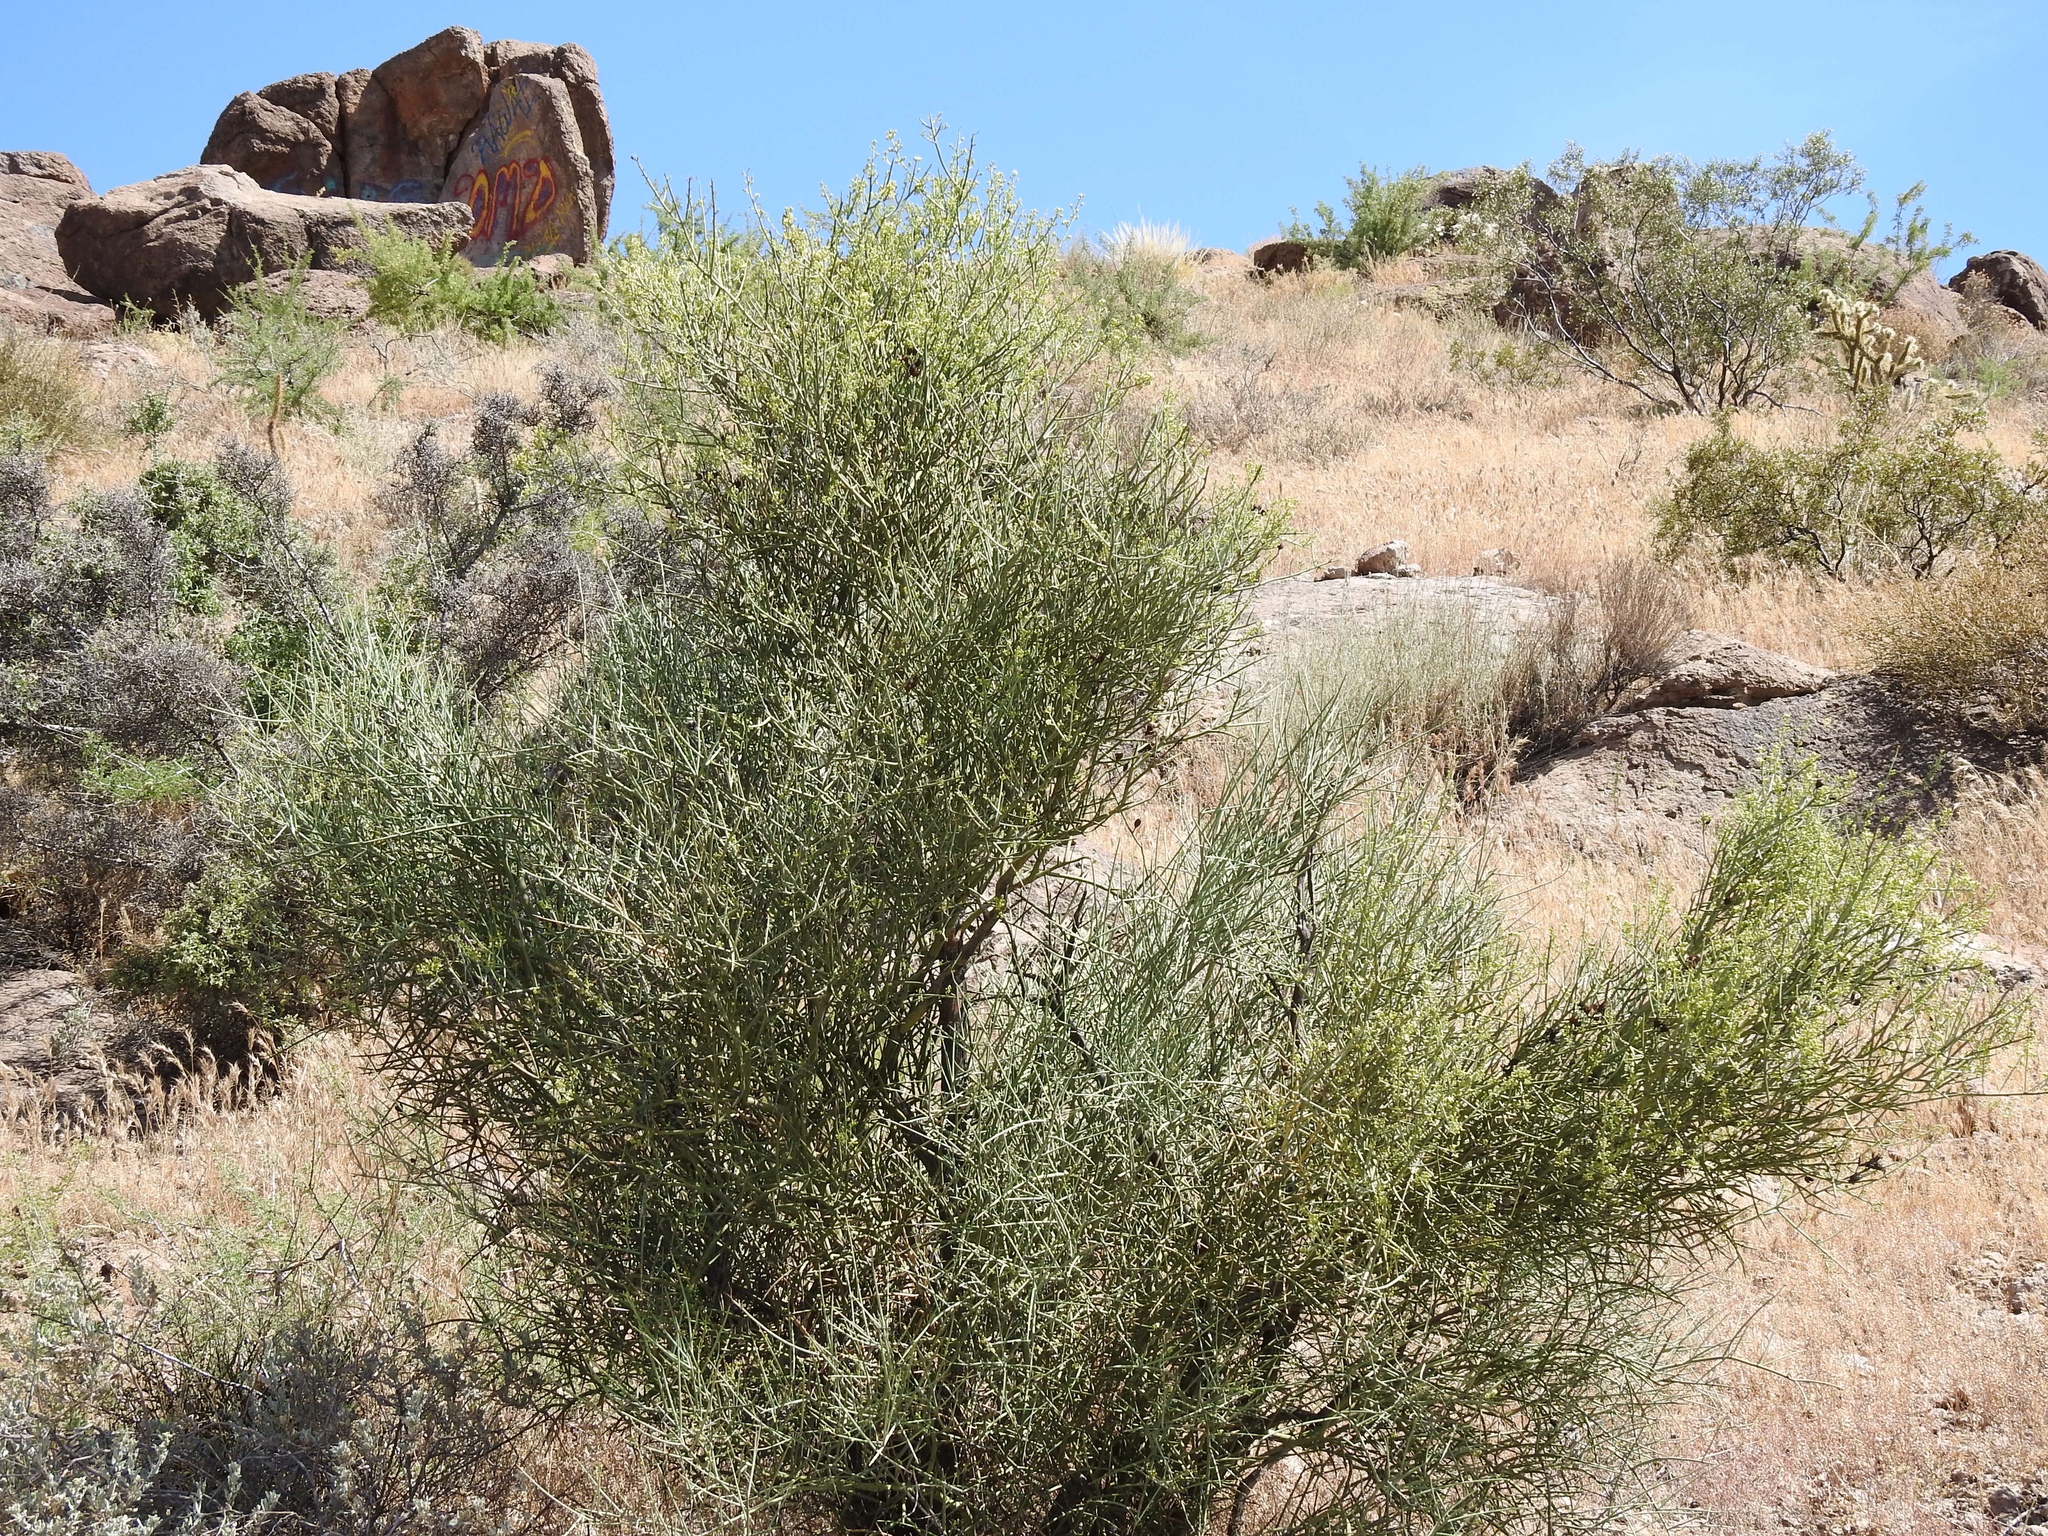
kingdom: Plantae
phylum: Tracheophyta
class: Magnoliopsida
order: Celastrales
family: Celastraceae
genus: Canotia
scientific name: Canotia holacantha
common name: Crucifixion thorns
